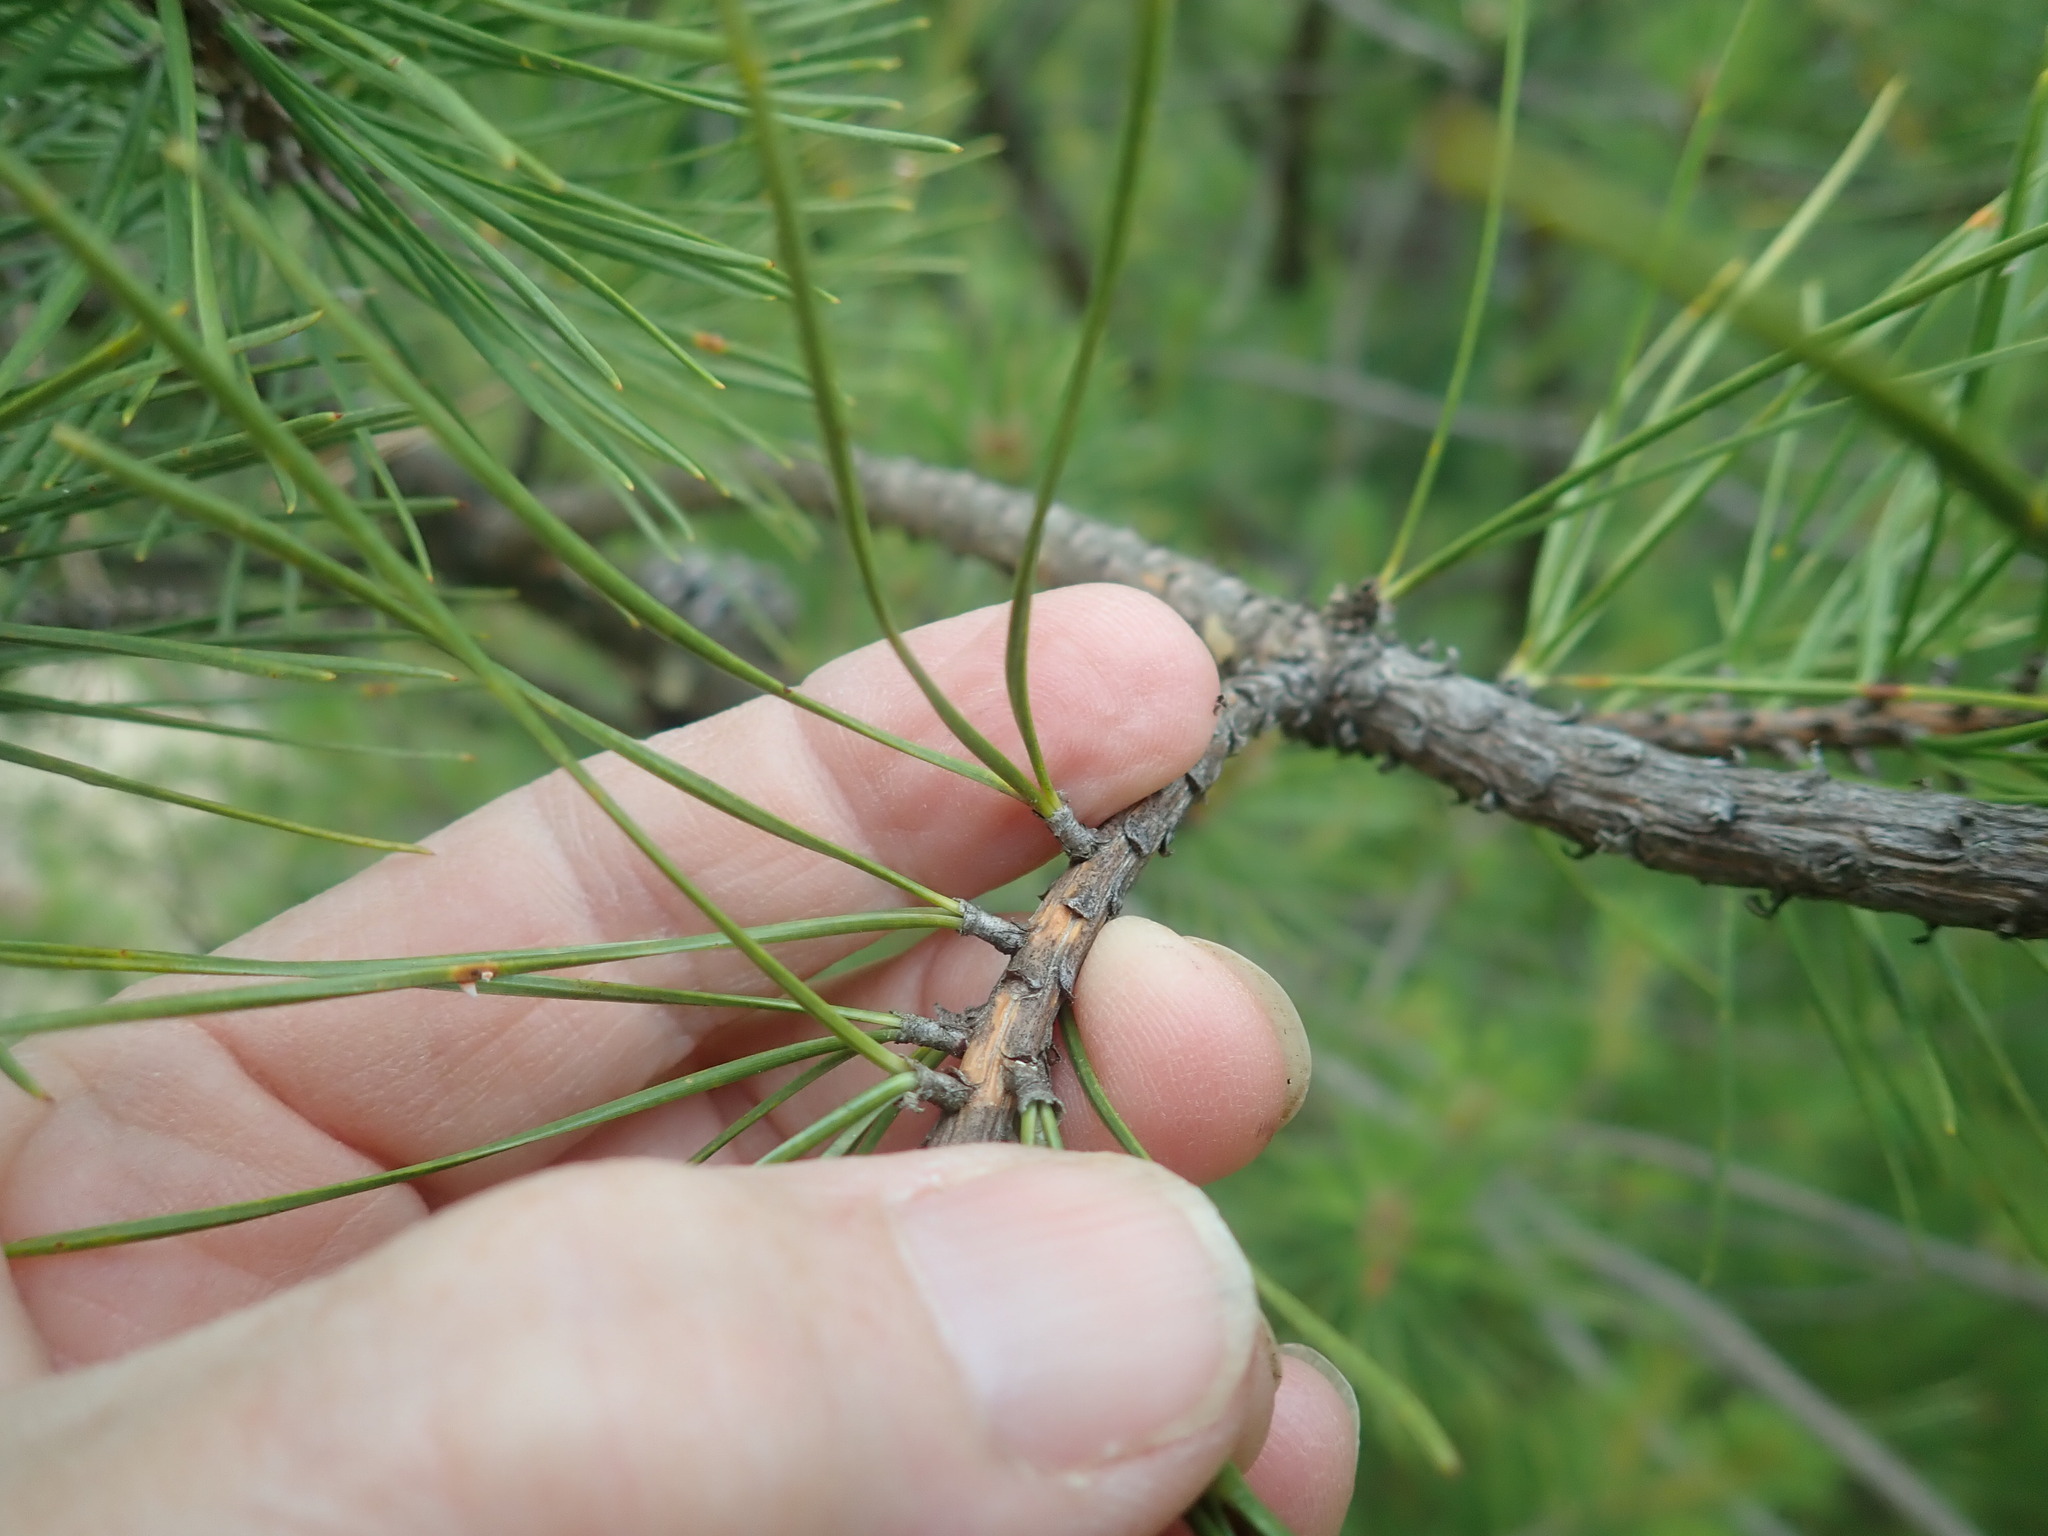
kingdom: Plantae
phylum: Tracheophyta
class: Pinopsida
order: Pinales
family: Pinaceae
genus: Pinus
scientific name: Pinus rigida
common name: Pitch pine
